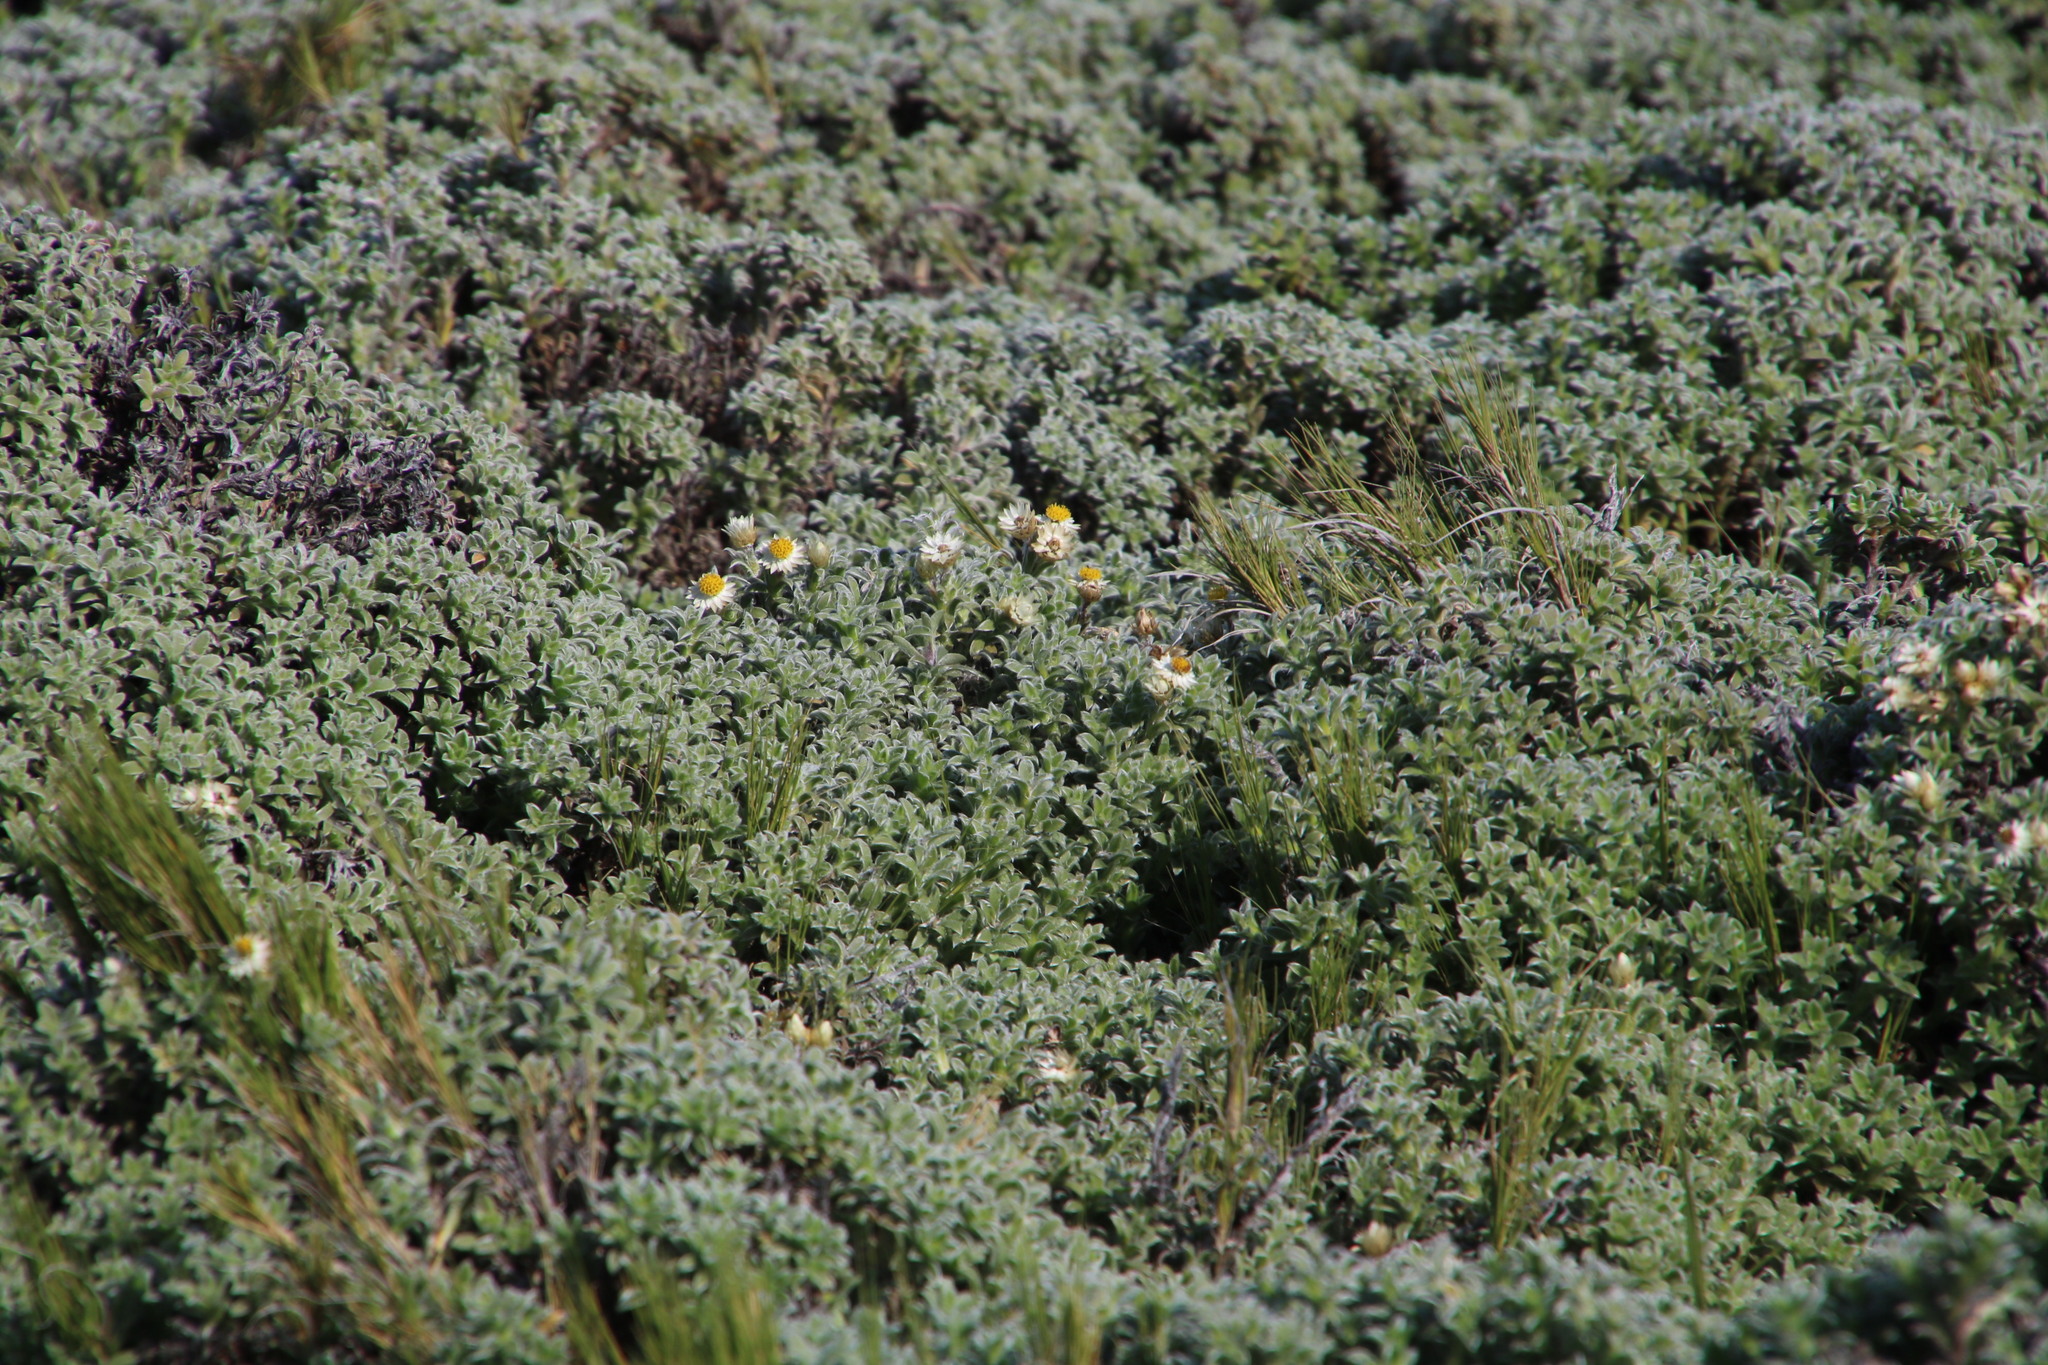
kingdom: Plantae
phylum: Tracheophyta
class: Magnoliopsida
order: Asterales
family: Asteraceae
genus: Achyranthemum
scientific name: Achyranthemum sordescens
